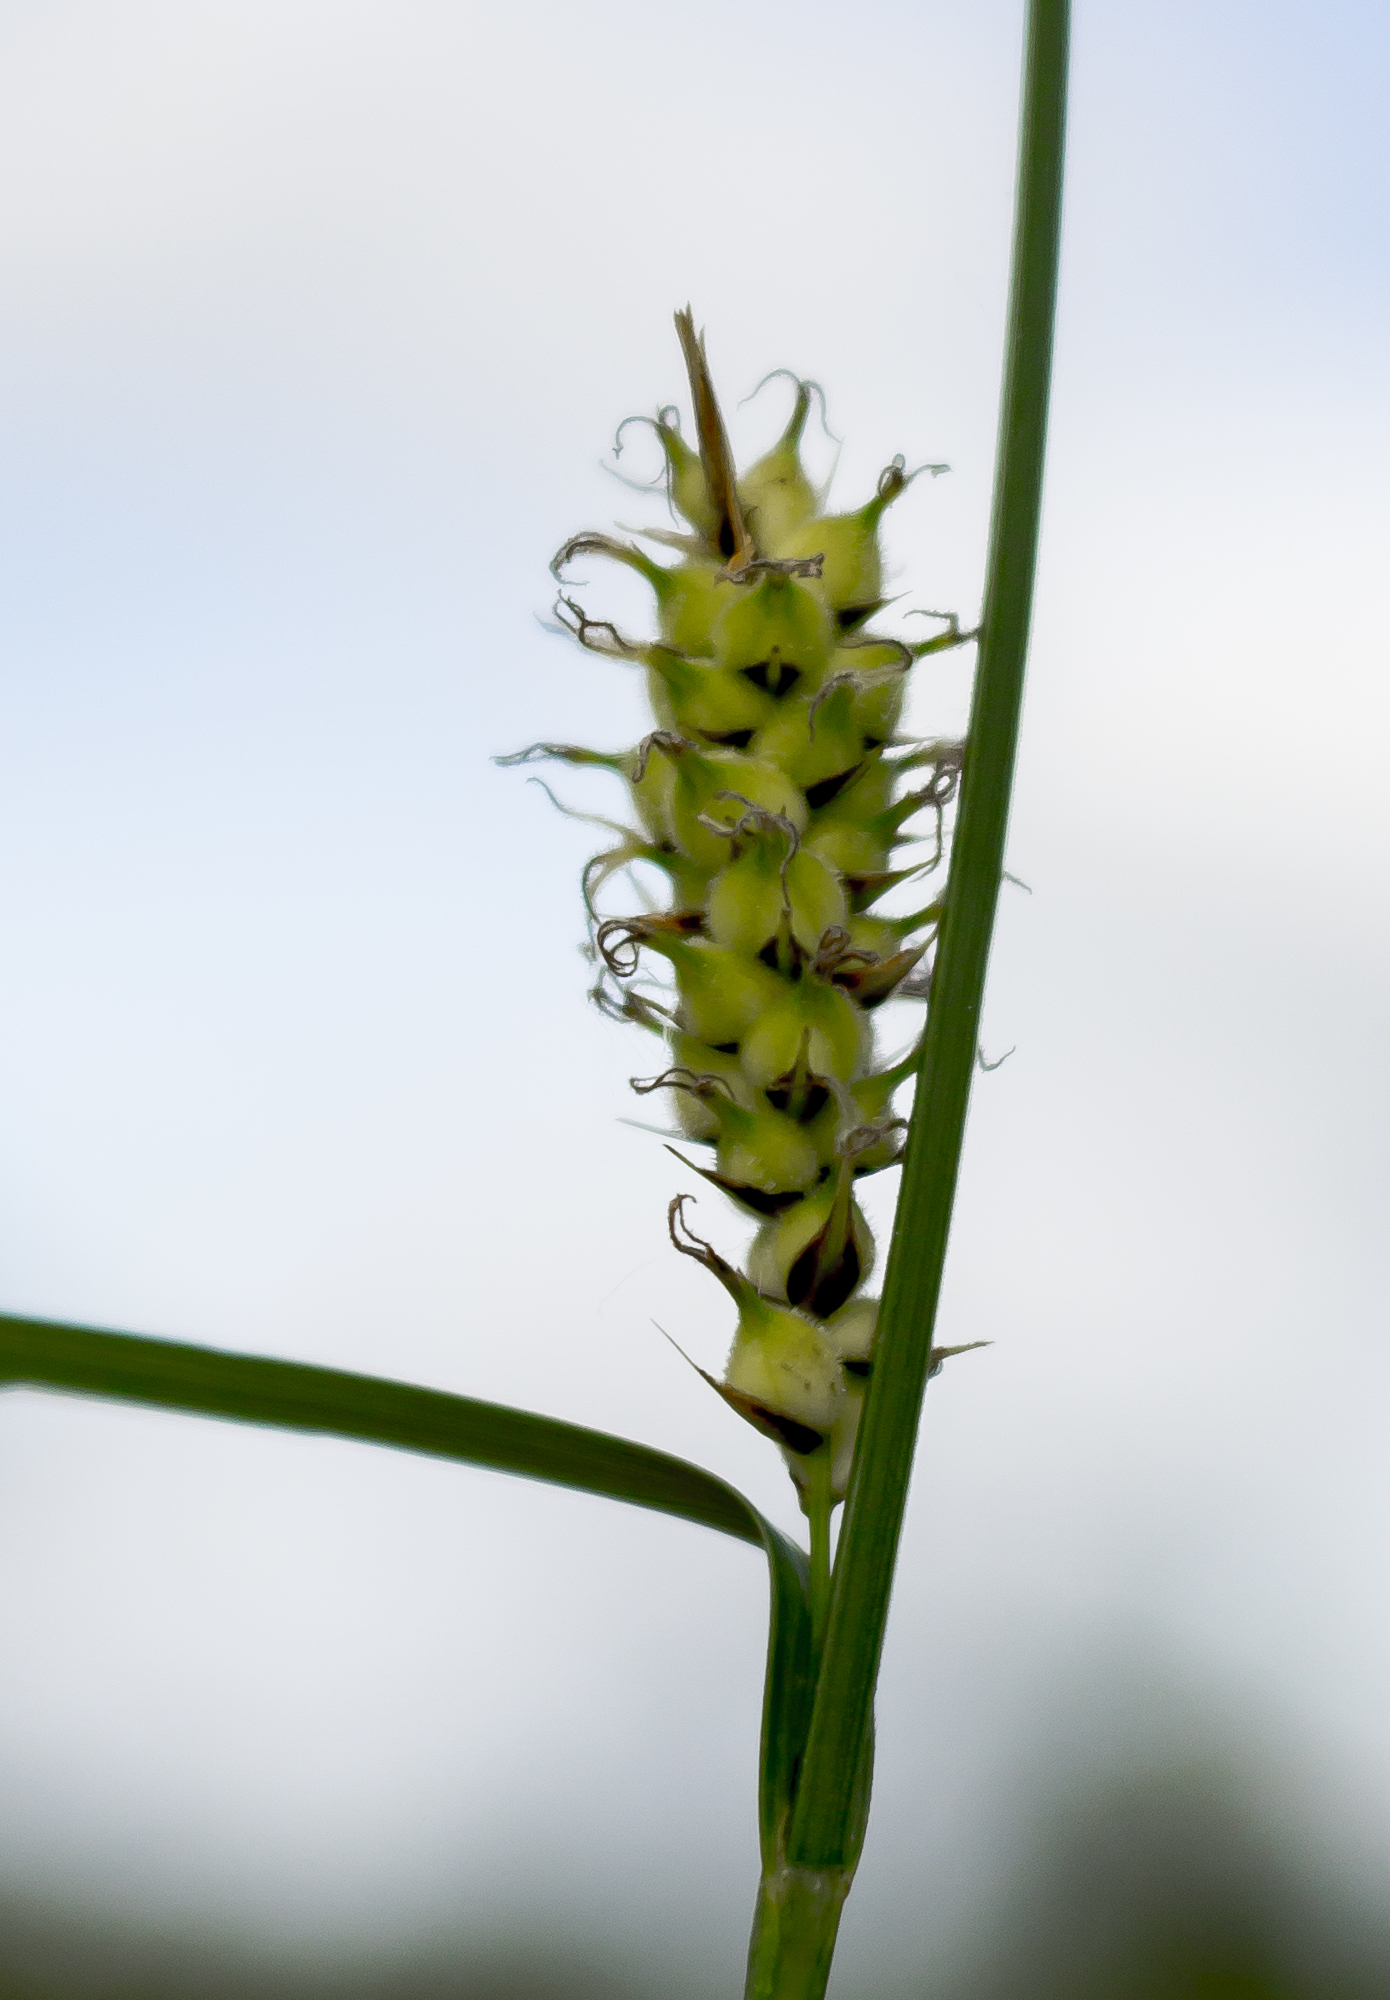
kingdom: Plantae
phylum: Tracheophyta
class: Liliopsida
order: Poales
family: Cyperaceae
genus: Carex
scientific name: Carex pellita
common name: Woolly sedge
